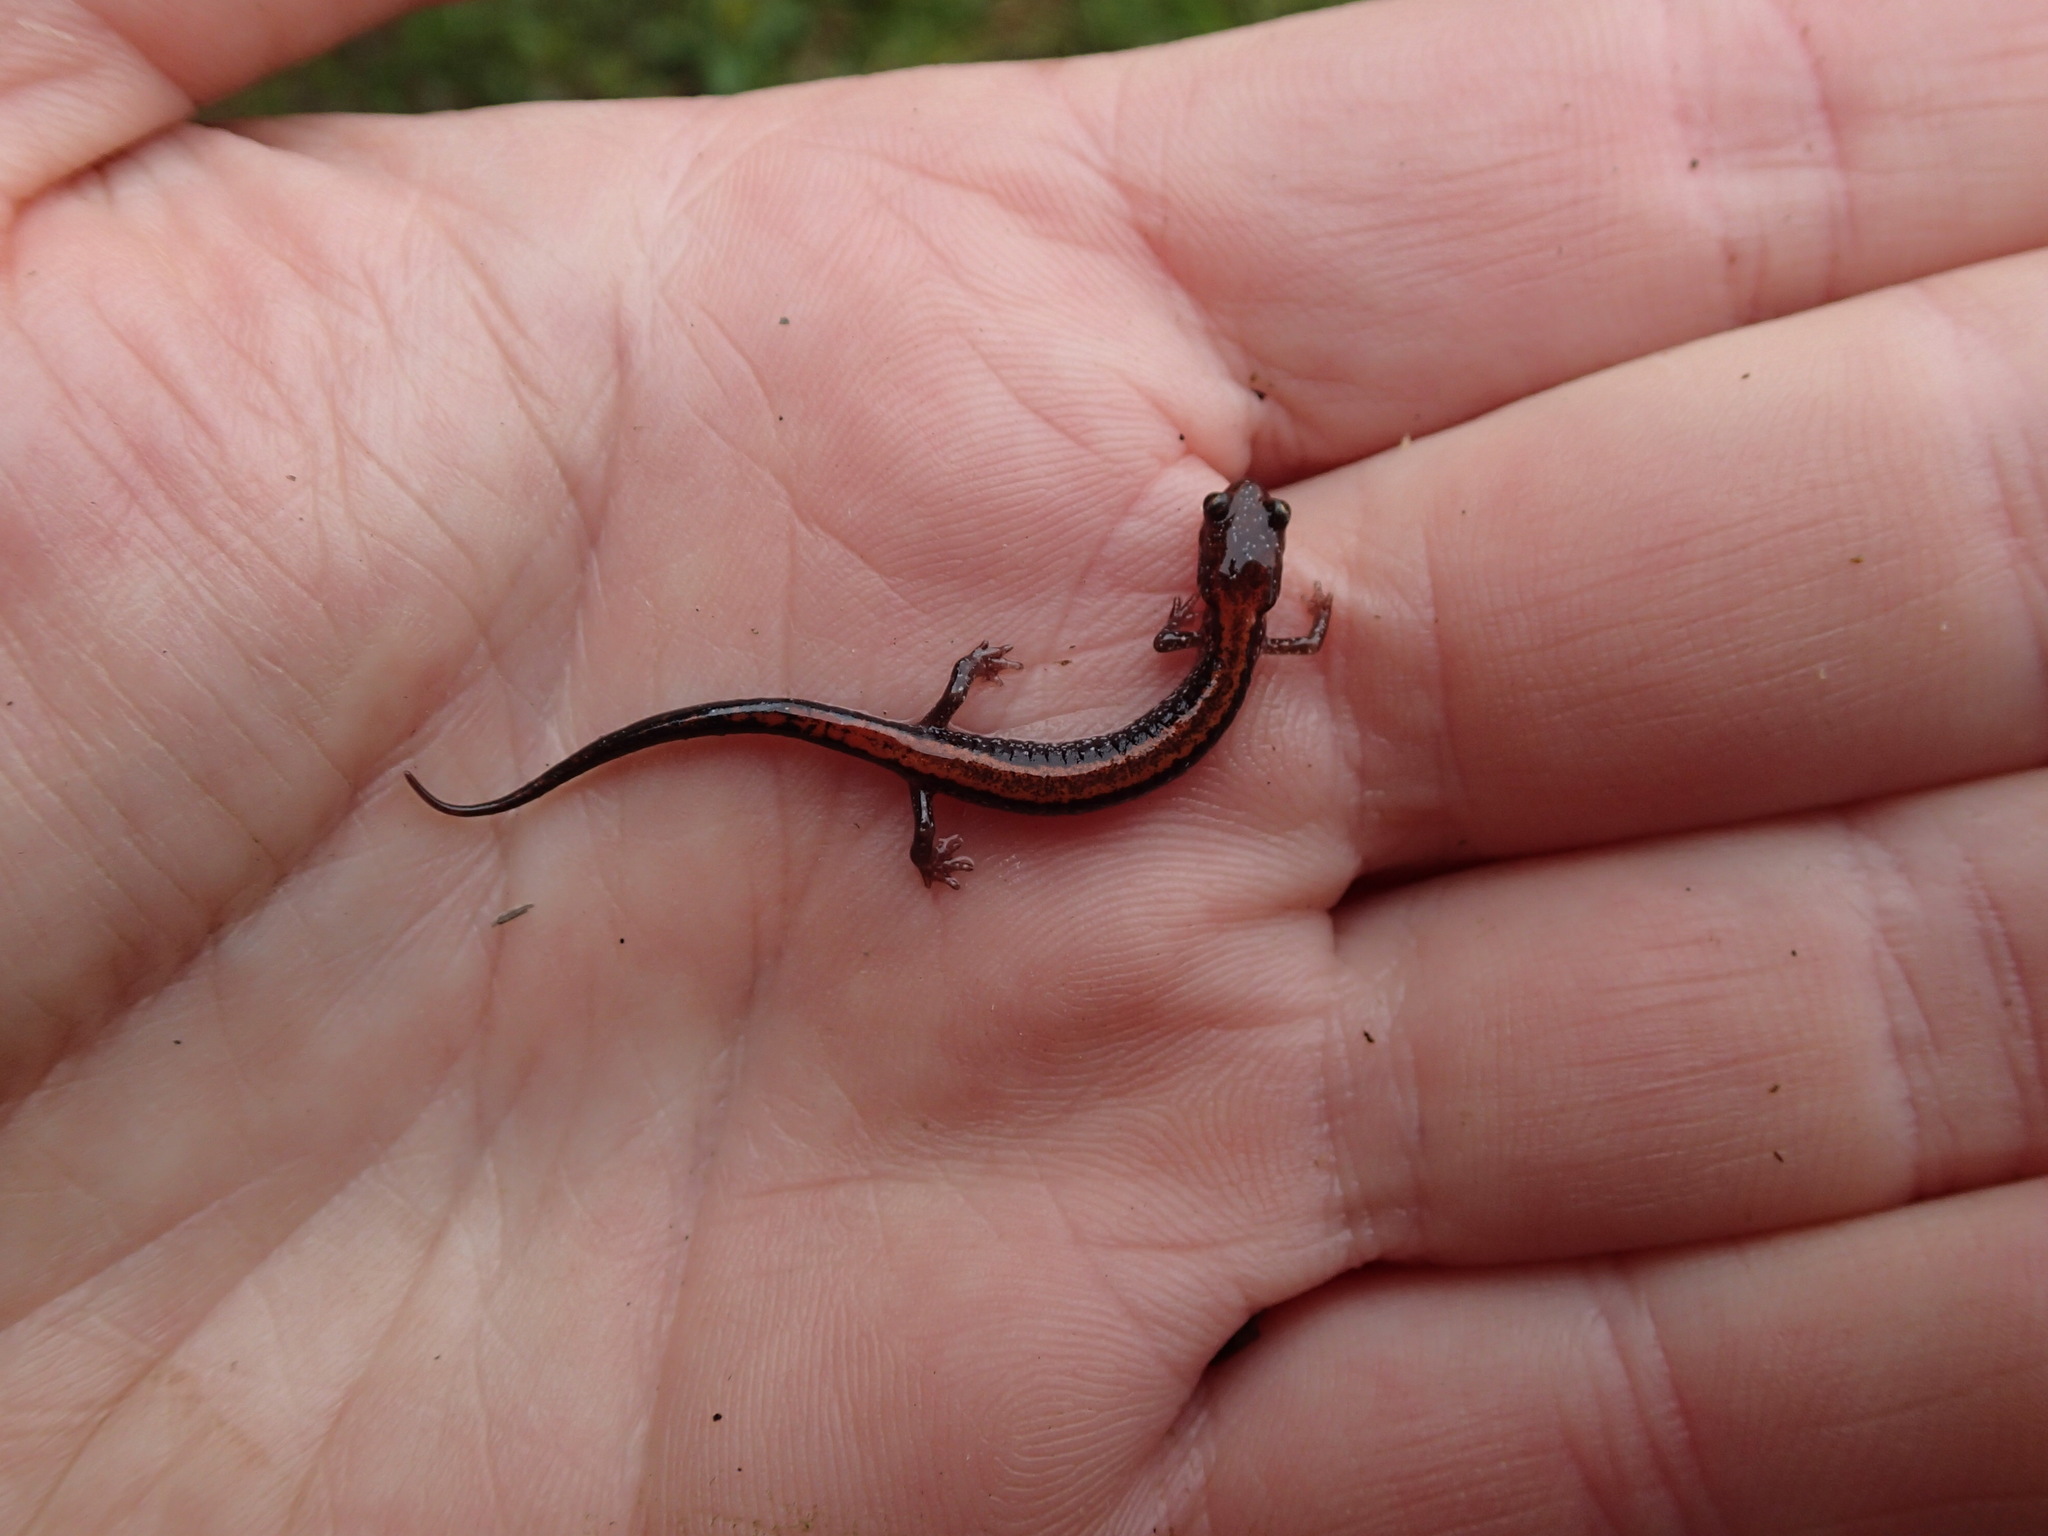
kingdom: Animalia
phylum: Chordata
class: Amphibia
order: Caudata
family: Plethodontidae
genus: Plethodon
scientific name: Plethodon cinereus
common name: Redback salamander
